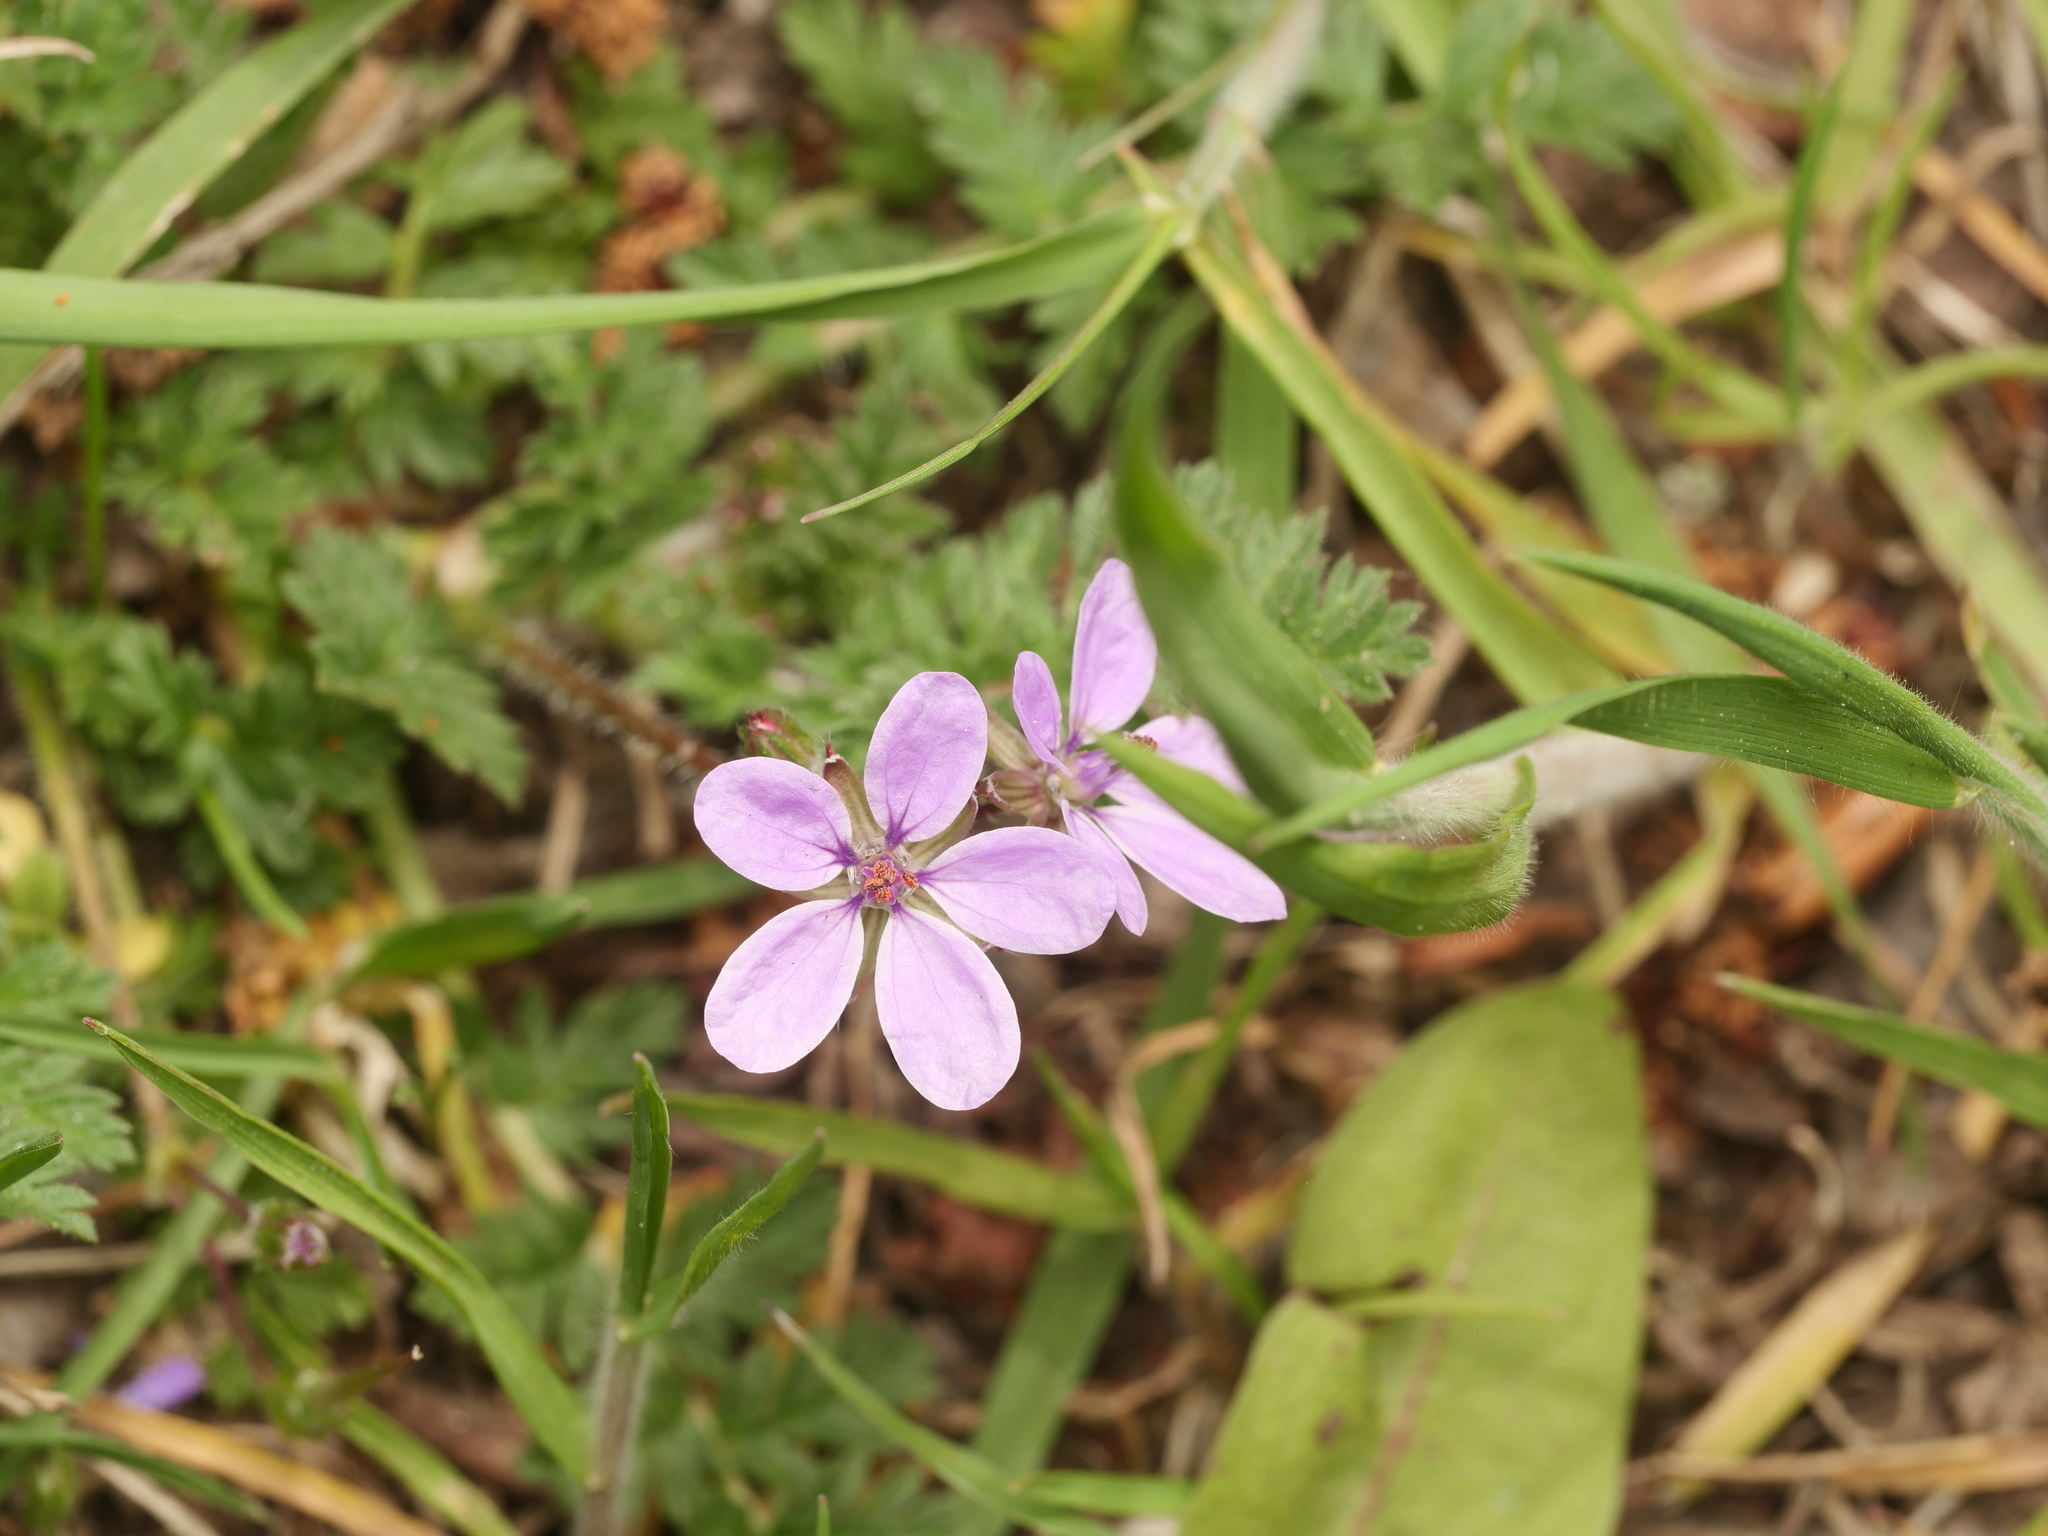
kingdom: Plantae
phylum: Tracheophyta
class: Magnoliopsida
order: Geraniales
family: Geraniaceae
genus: Erodium
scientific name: Erodium cicutarium
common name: Common stork's-bill
